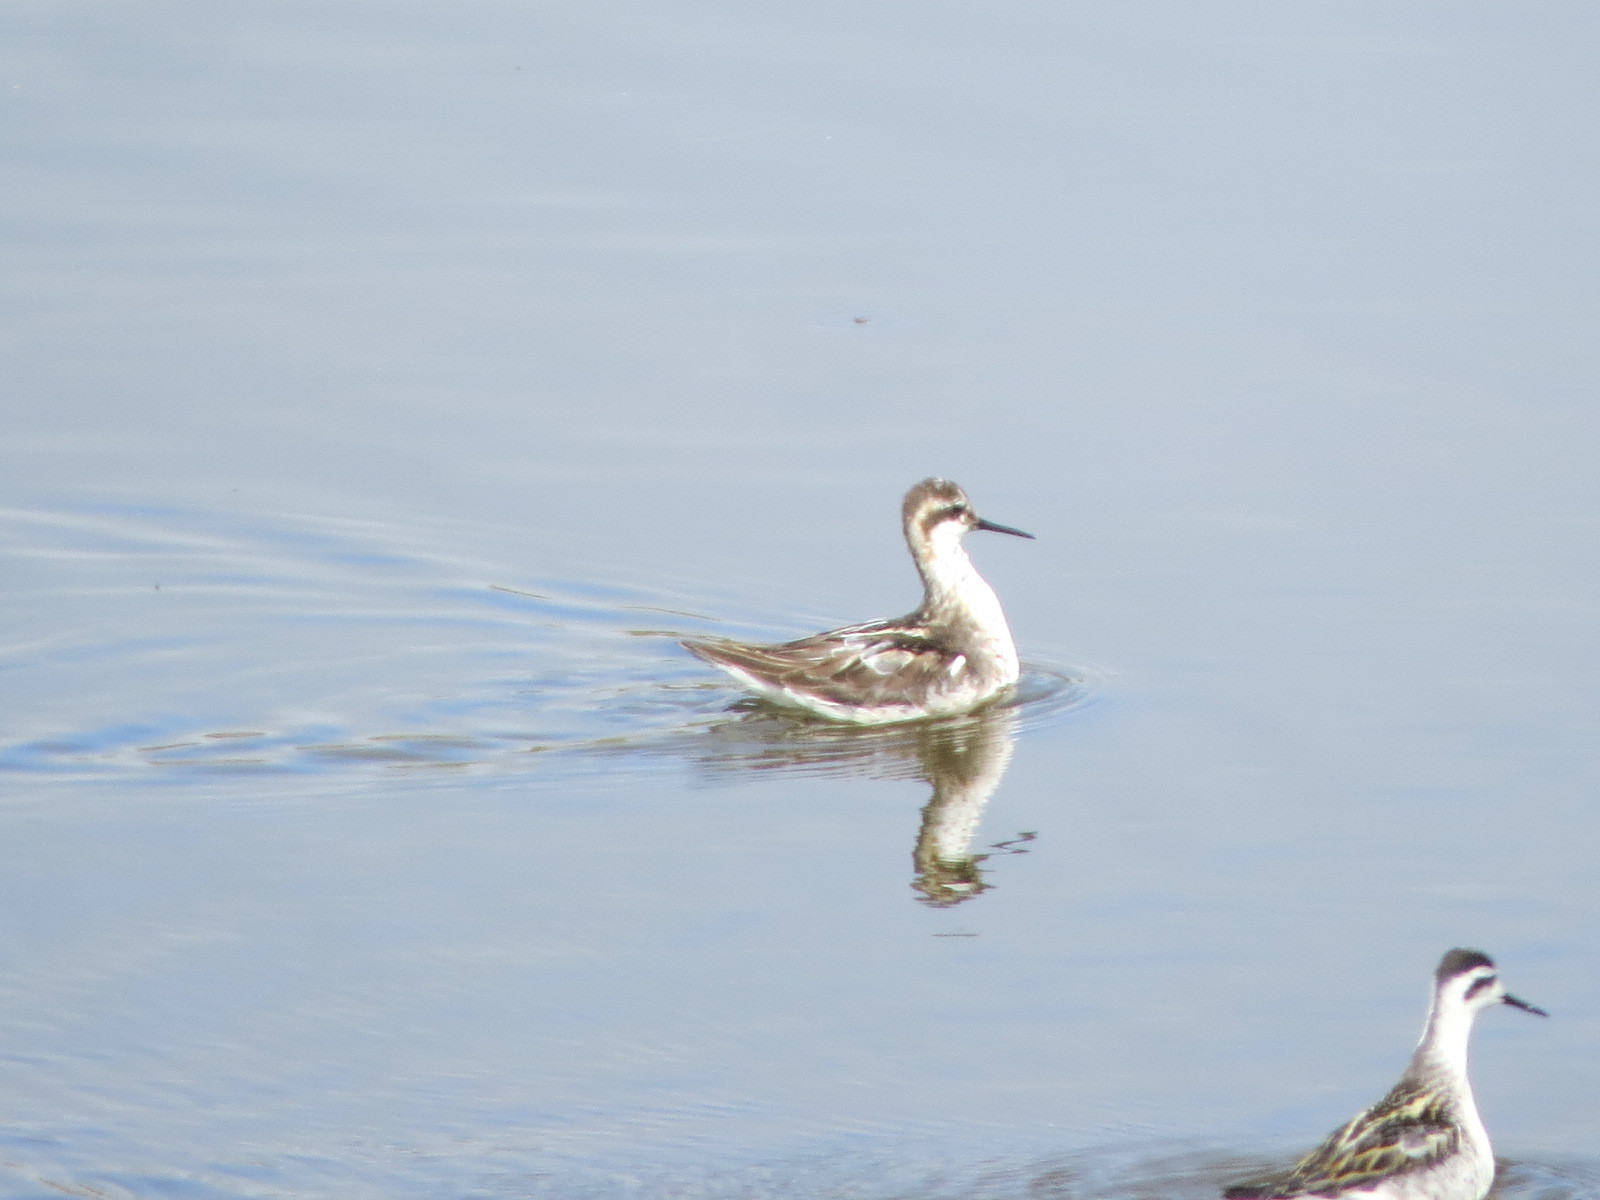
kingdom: Animalia
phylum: Chordata
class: Aves
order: Charadriiformes
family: Scolopacidae
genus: Phalaropus
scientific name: Phalaropus lobatus
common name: Red-necked phalarope
